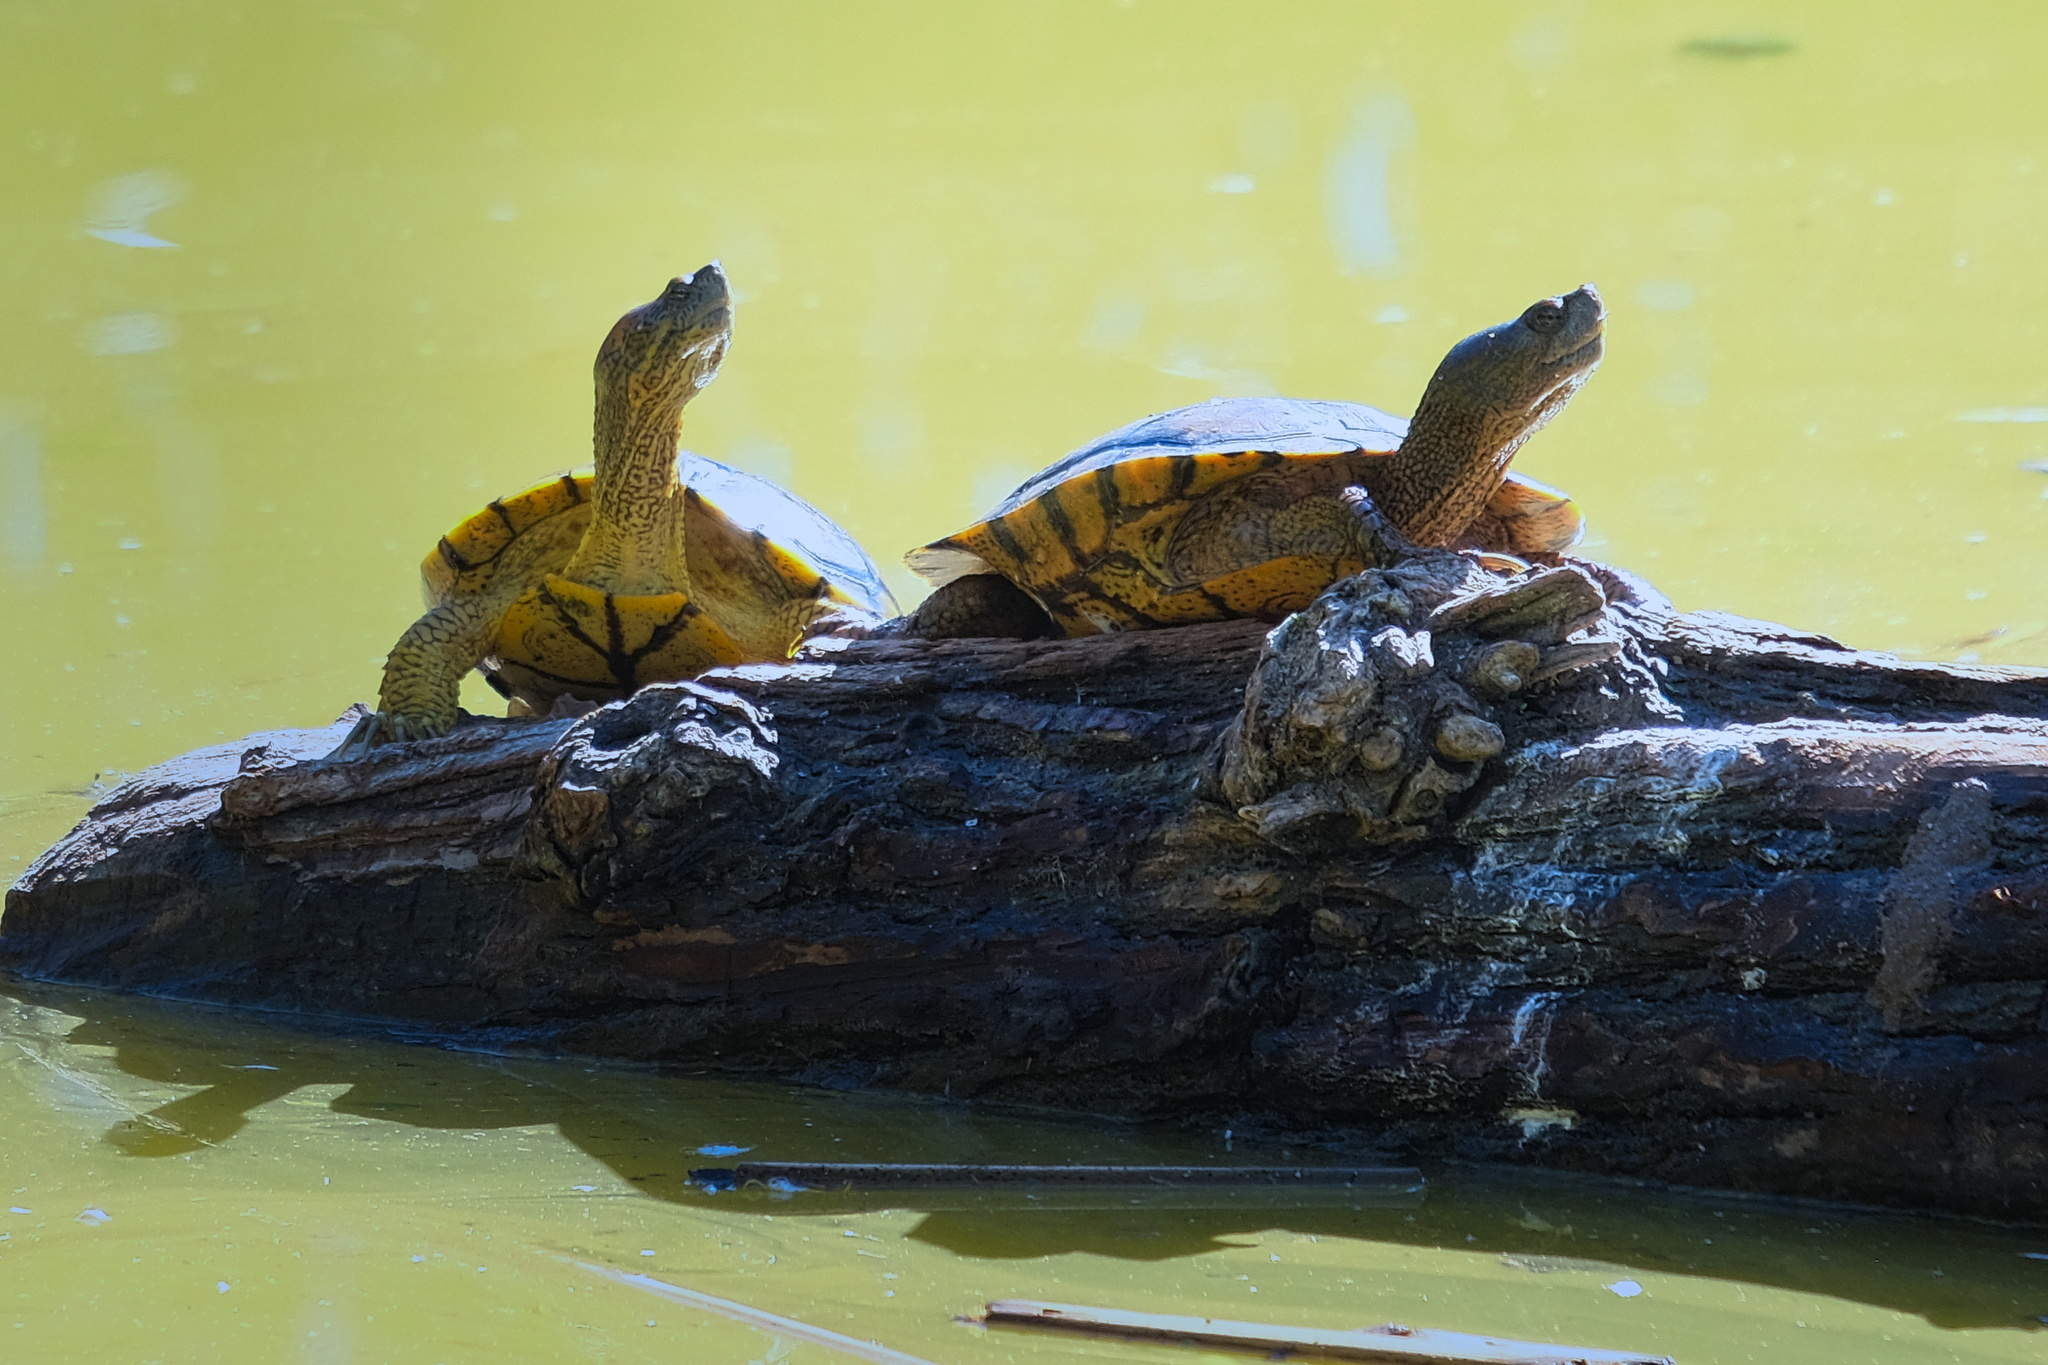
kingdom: Animalia
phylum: Chordata
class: Testudines
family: Emydidae
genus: Trachemys
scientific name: Trachemys scripta
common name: Slider
